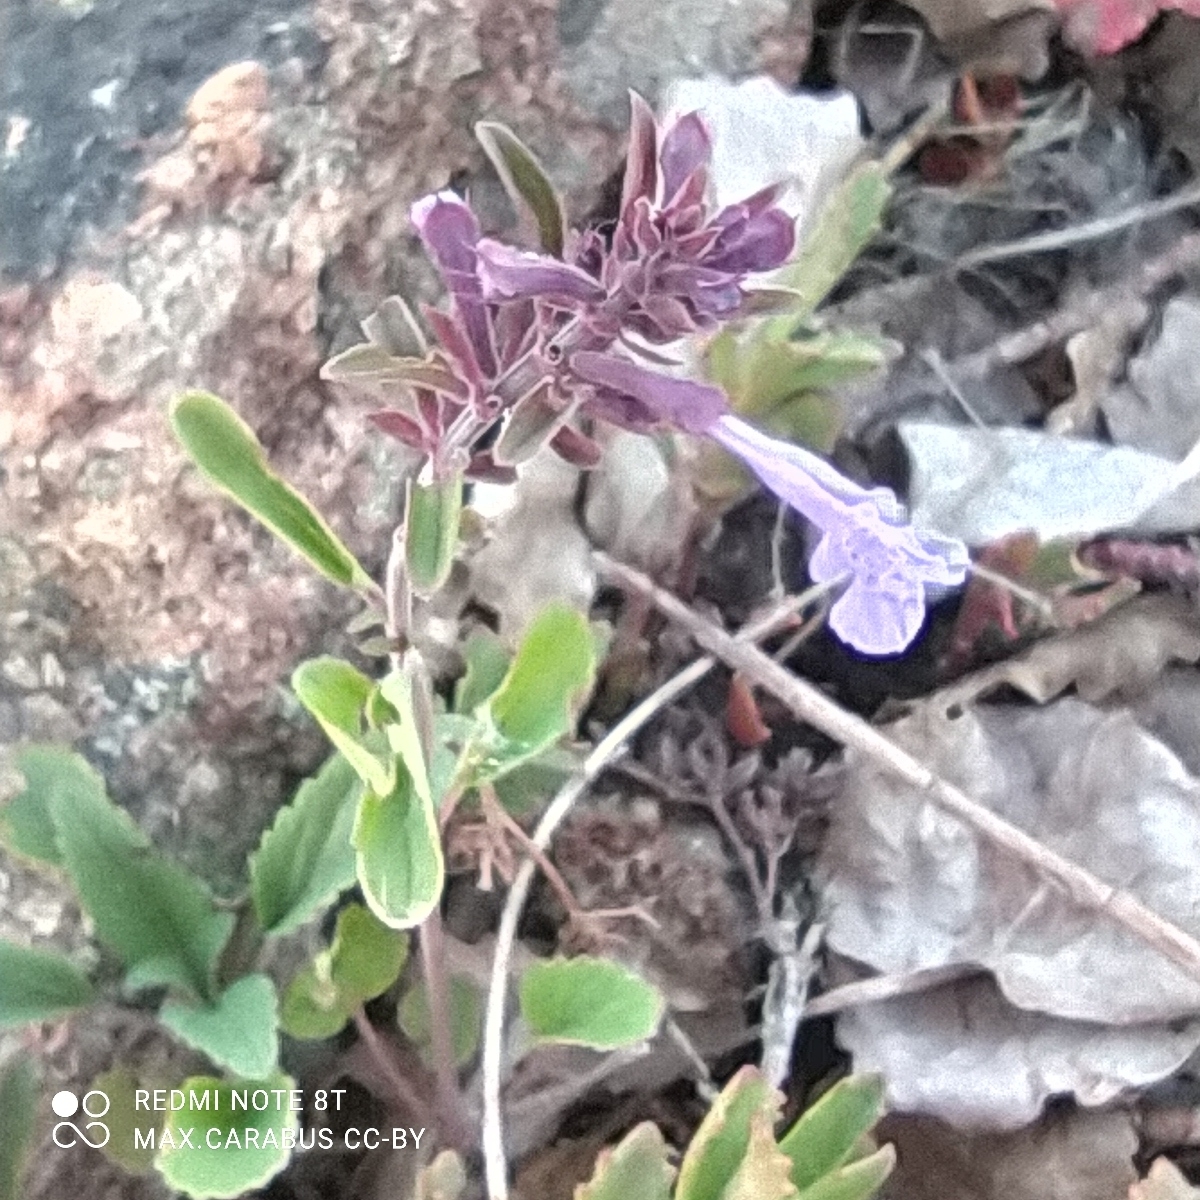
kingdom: Plantae
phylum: Tracheophyta
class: Magnoliopsida
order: Lamiales
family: Lamiaceae
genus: Dracocephalum
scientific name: Dracocephalum nutans
